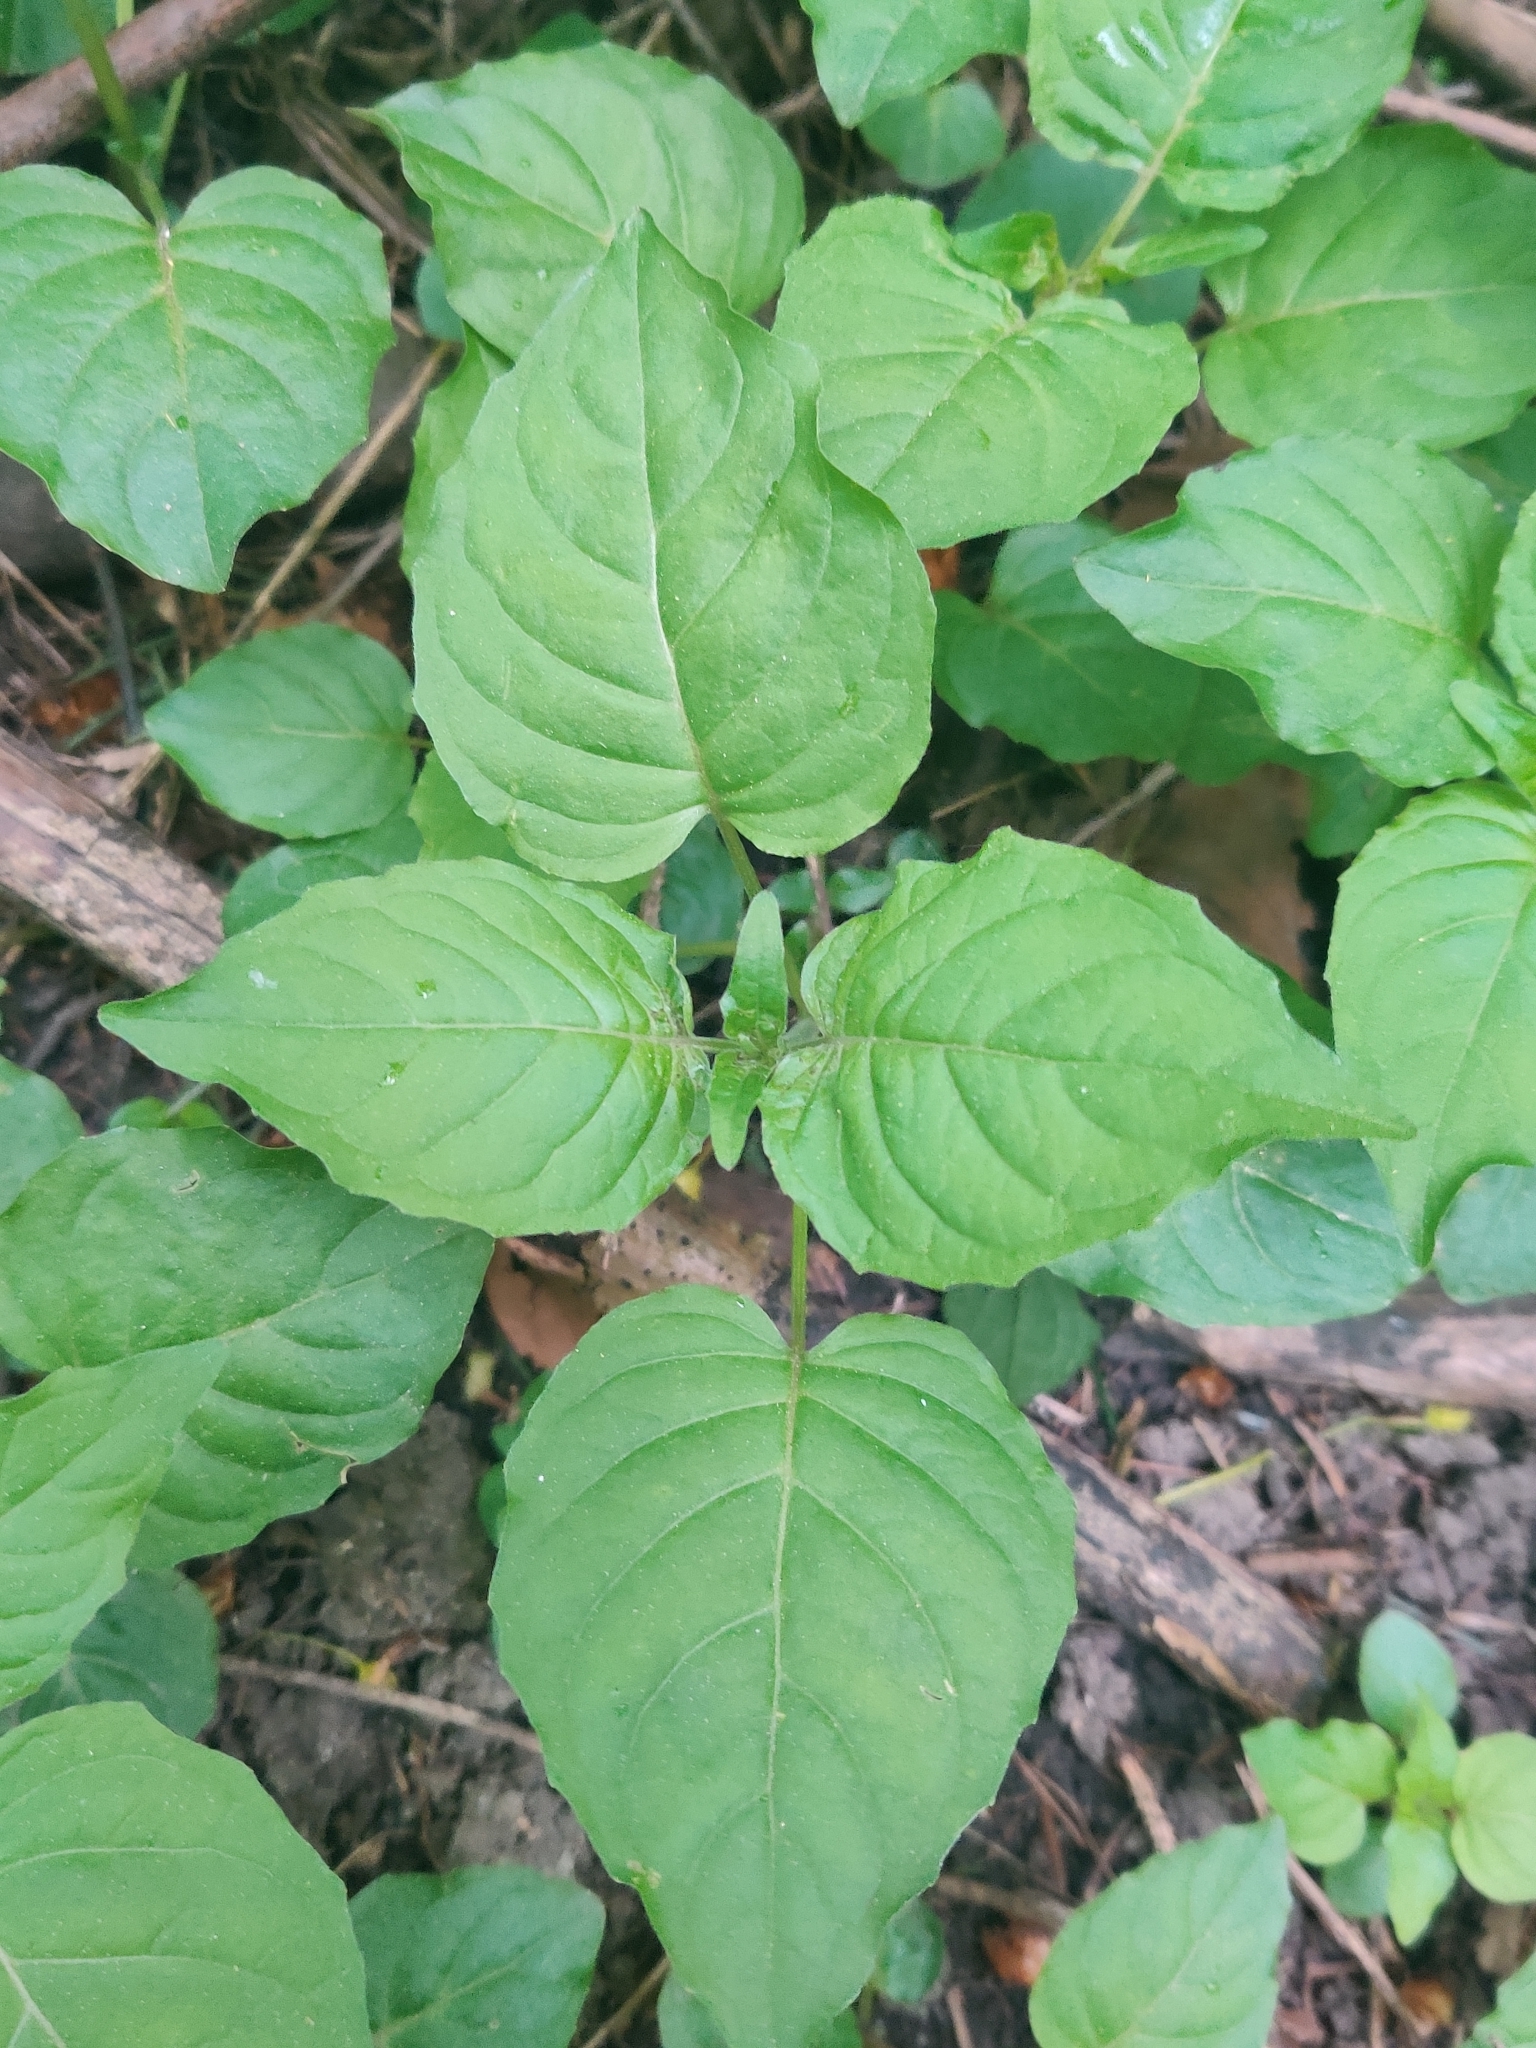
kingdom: Plantae
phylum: Tracheophyta
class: Magnoliopsida
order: Myrtales
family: Onagraceae
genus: Circaea
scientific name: Circaea lutetiana
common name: Enchanter's-nightshade
